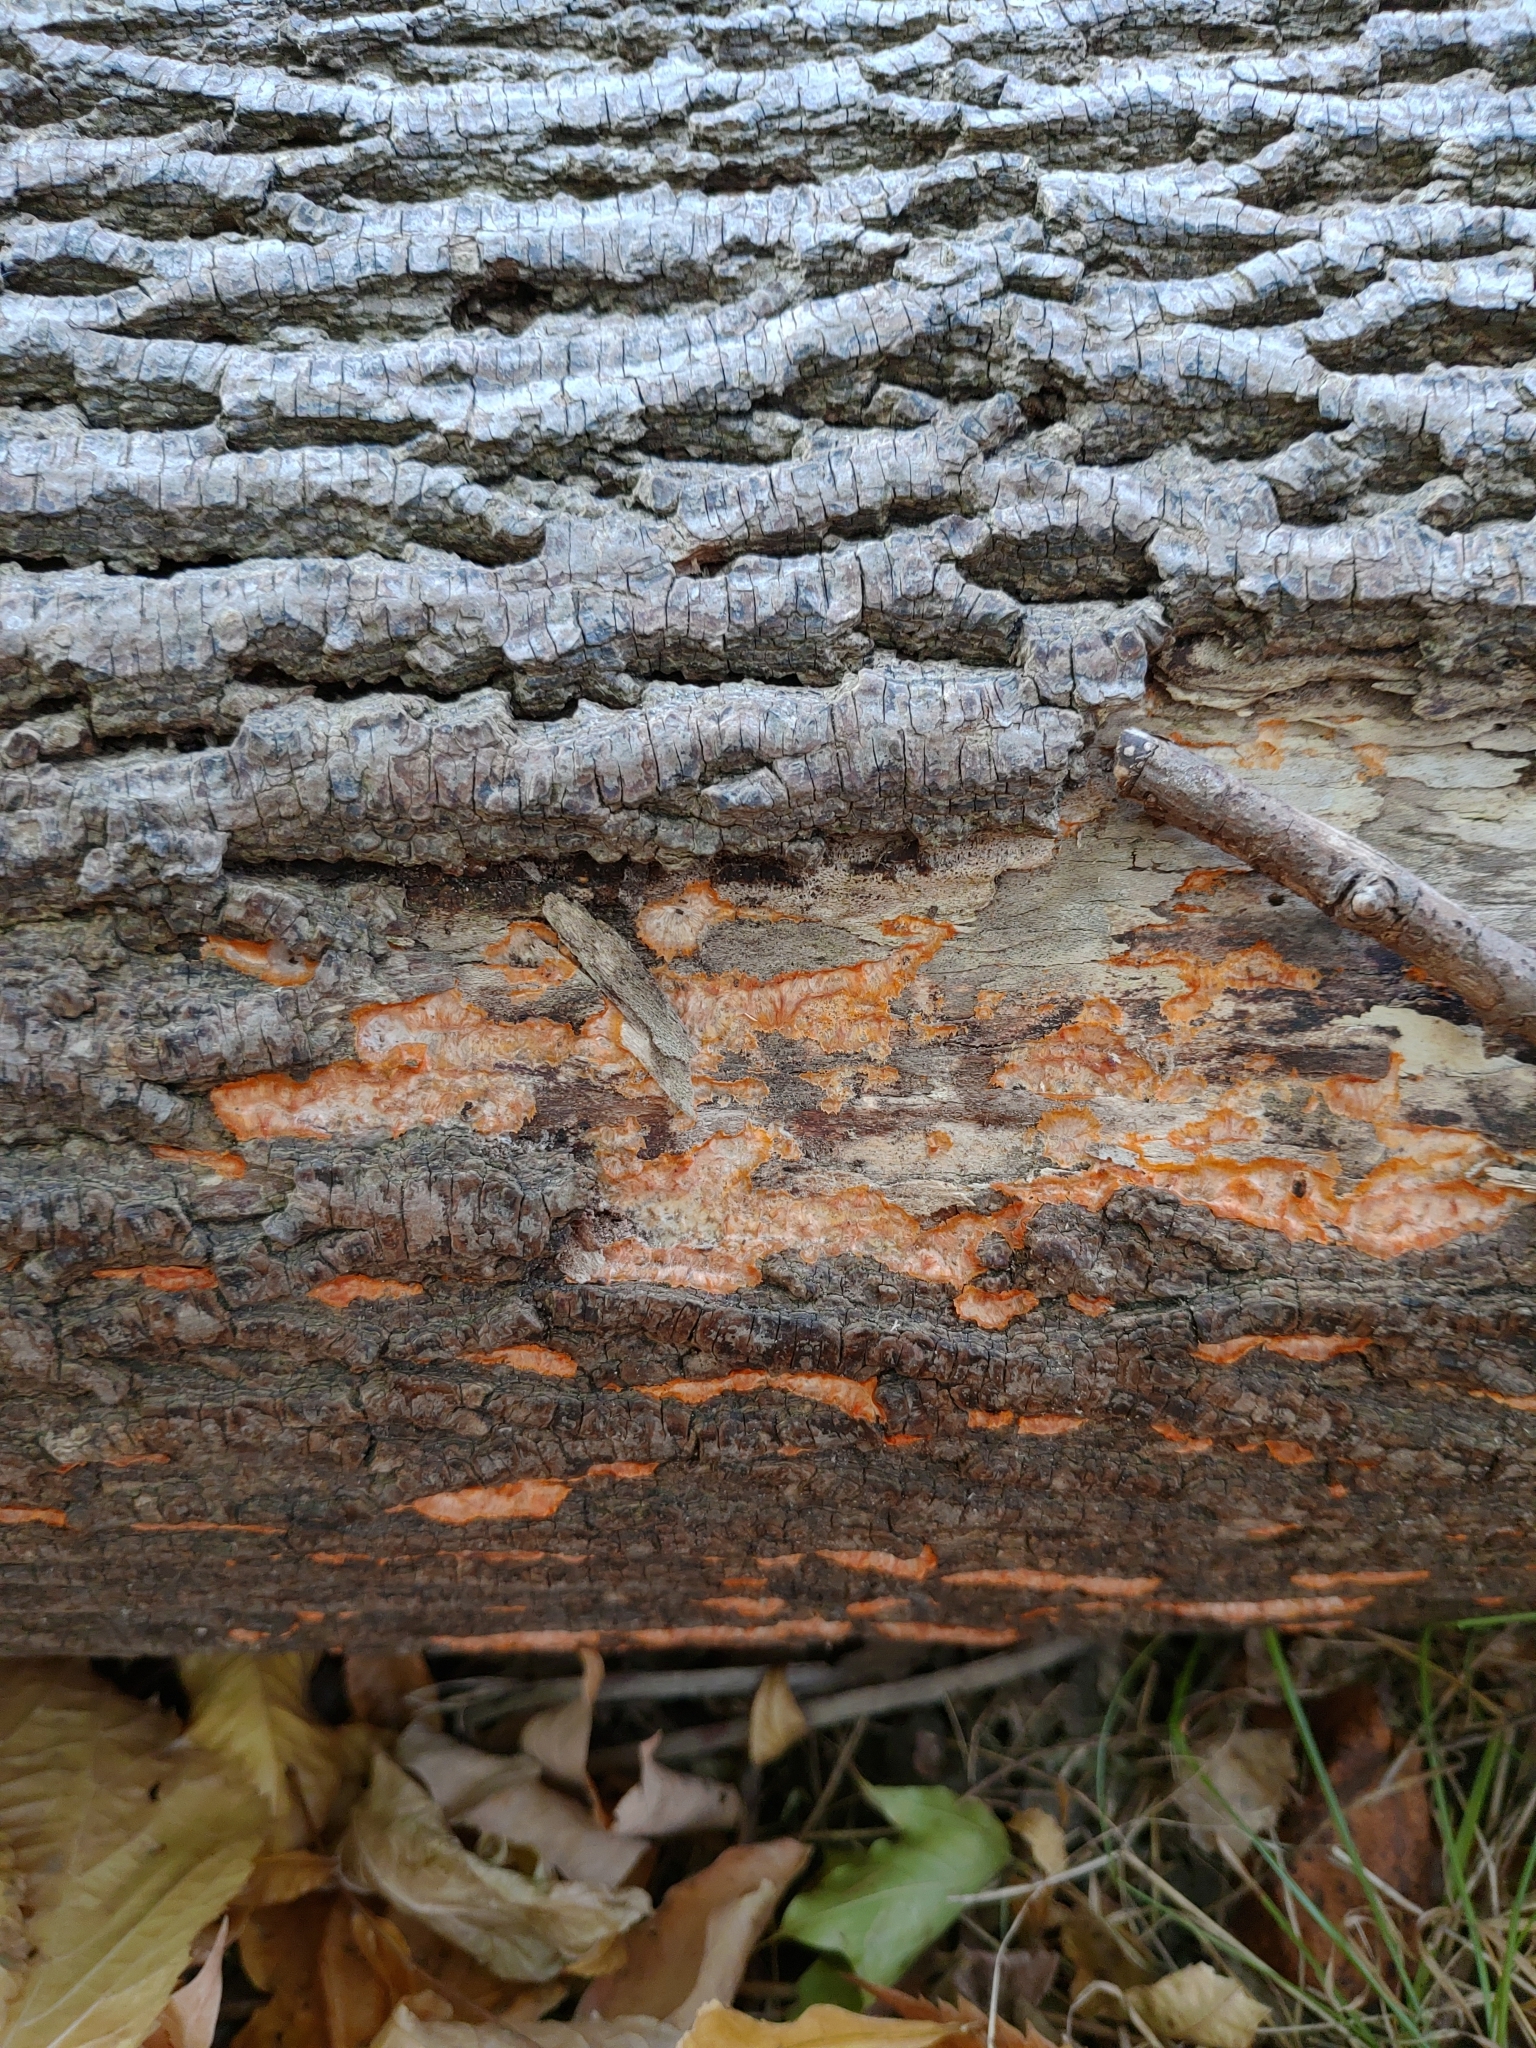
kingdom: Fungi
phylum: Basidiomycota
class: Agaricomycetes
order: Polyporales
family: Meruliaceae
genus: Phlebia
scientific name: Phlebia radiata
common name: Wrinkled crust
